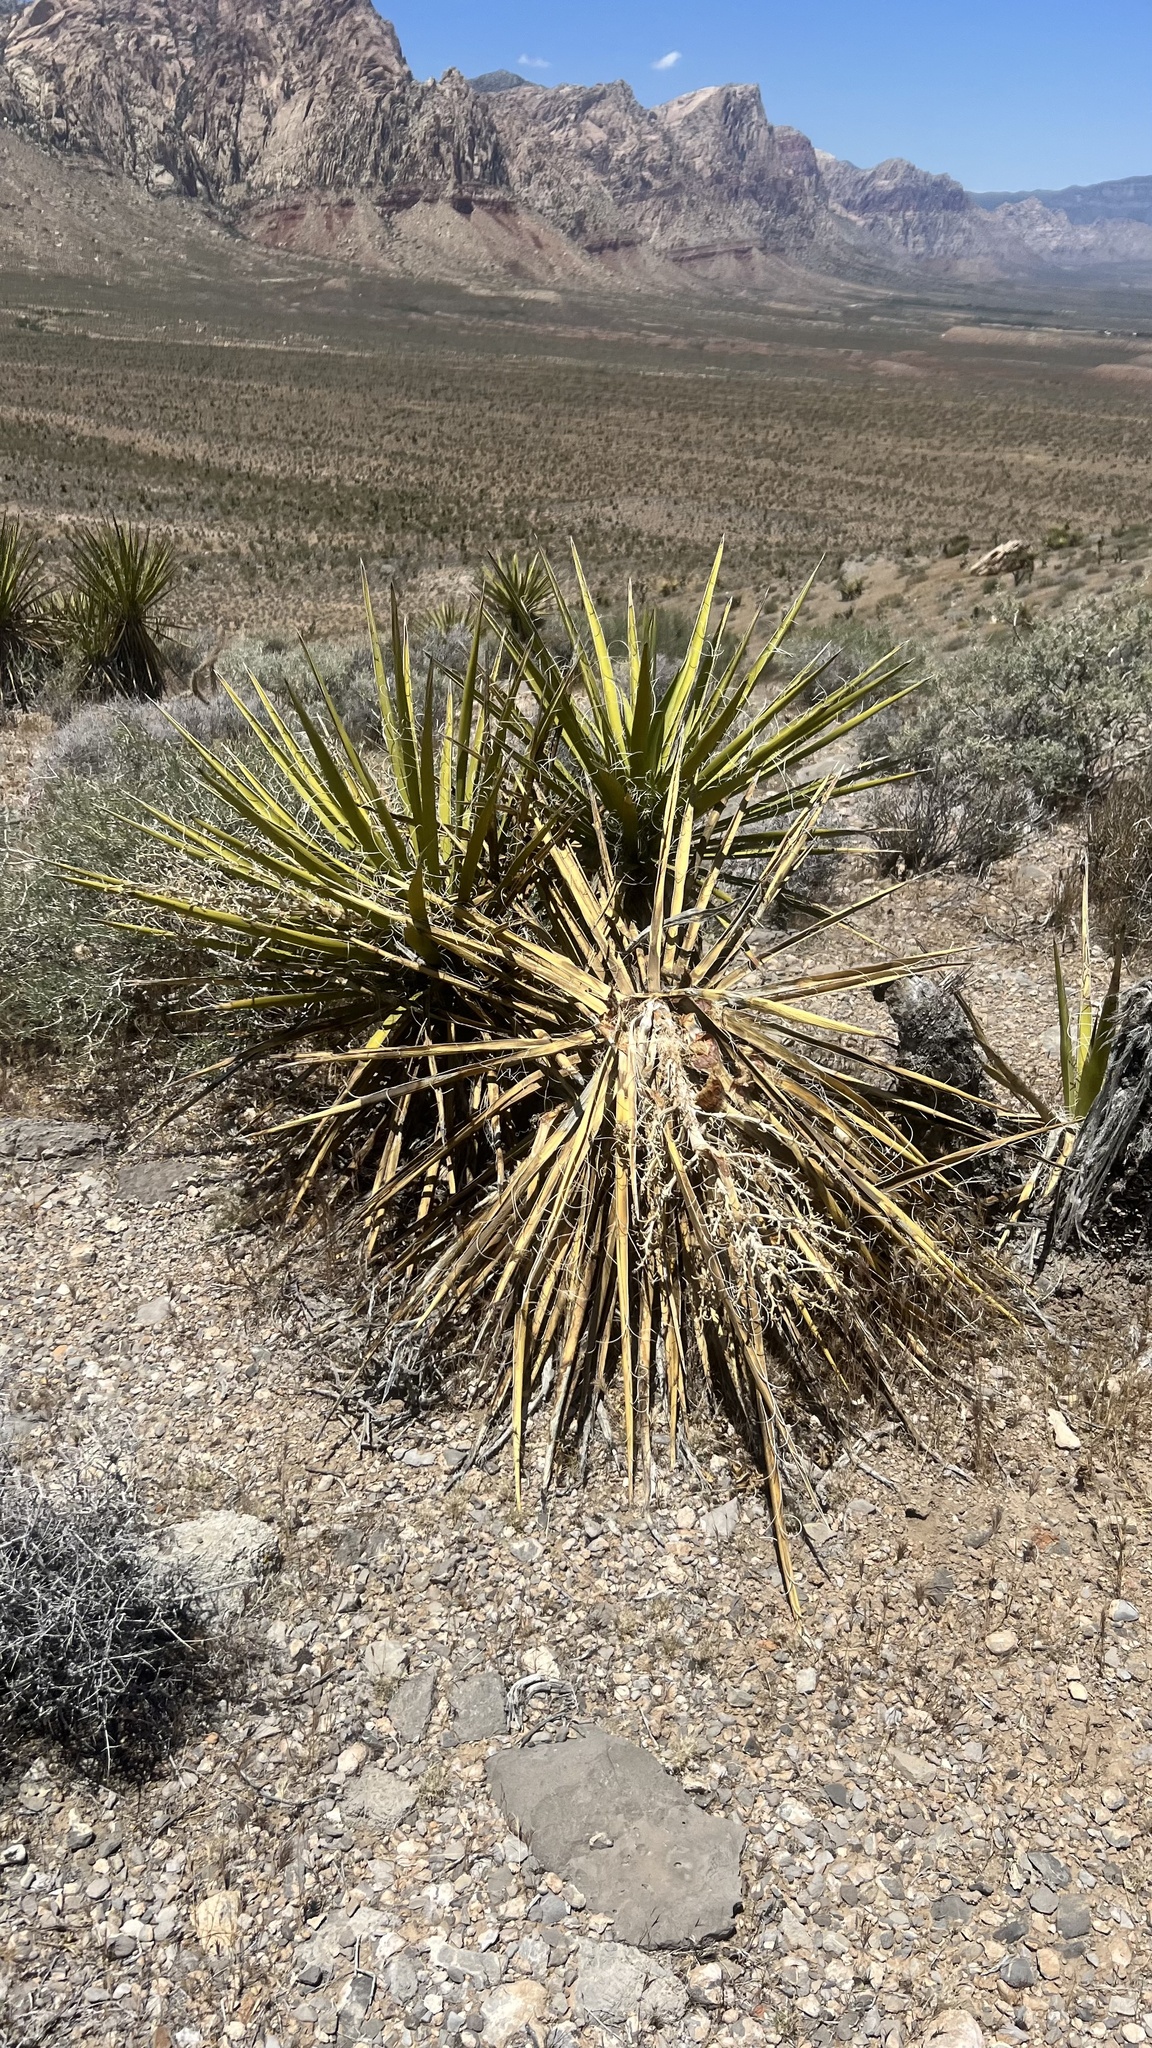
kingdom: Plantae
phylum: Tracheophyta
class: Liliopsida
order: Asparagales
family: Asparagaceae
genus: Yucca
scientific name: Yucca schidigera
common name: Mojave yucca
